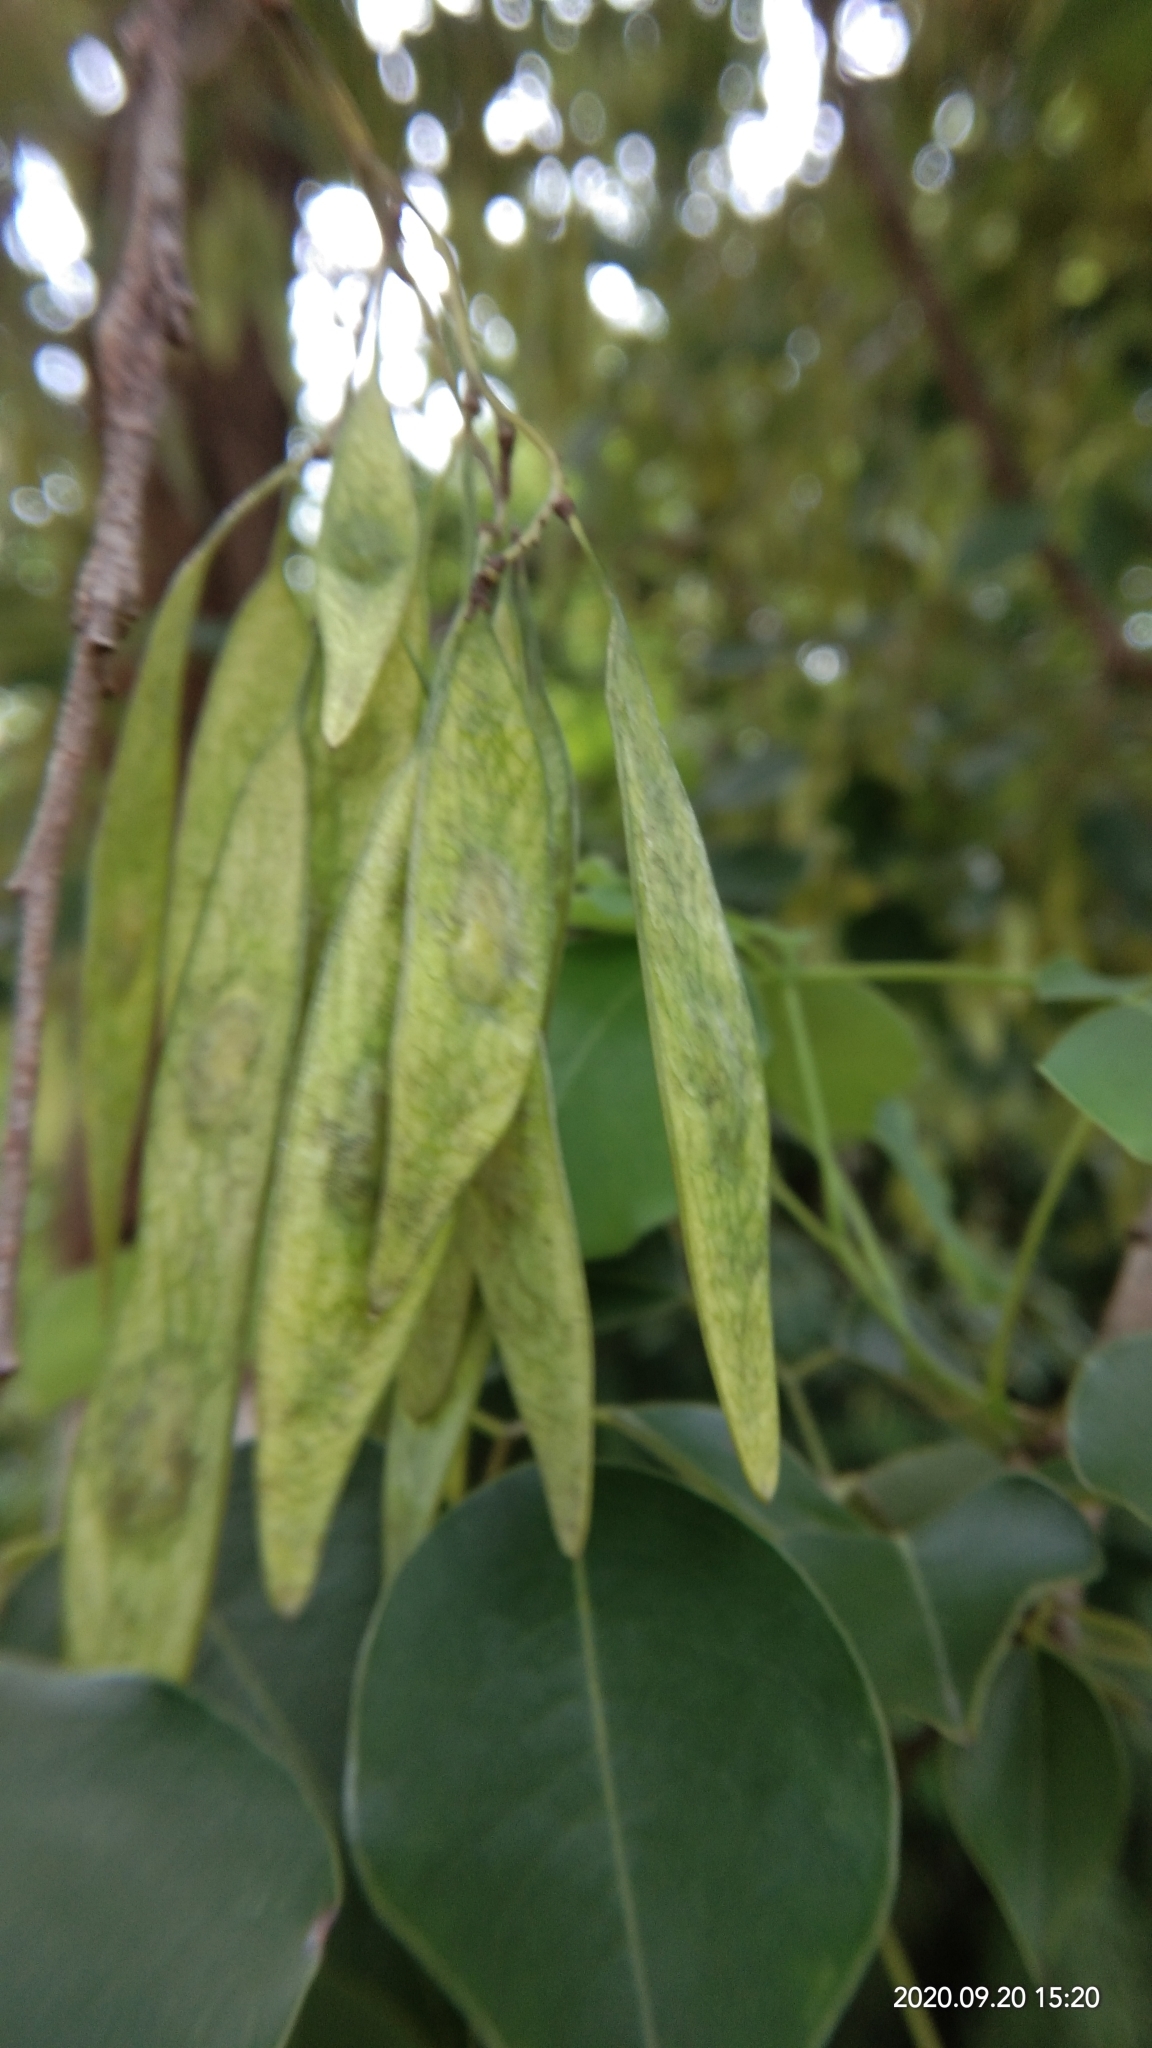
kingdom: Plantae
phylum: Tracheophyta
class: Magnoliopsida
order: Fabales
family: Fabaceae
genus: Dalbergia
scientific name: Dalbergia sissoo
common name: Indian rosewood
